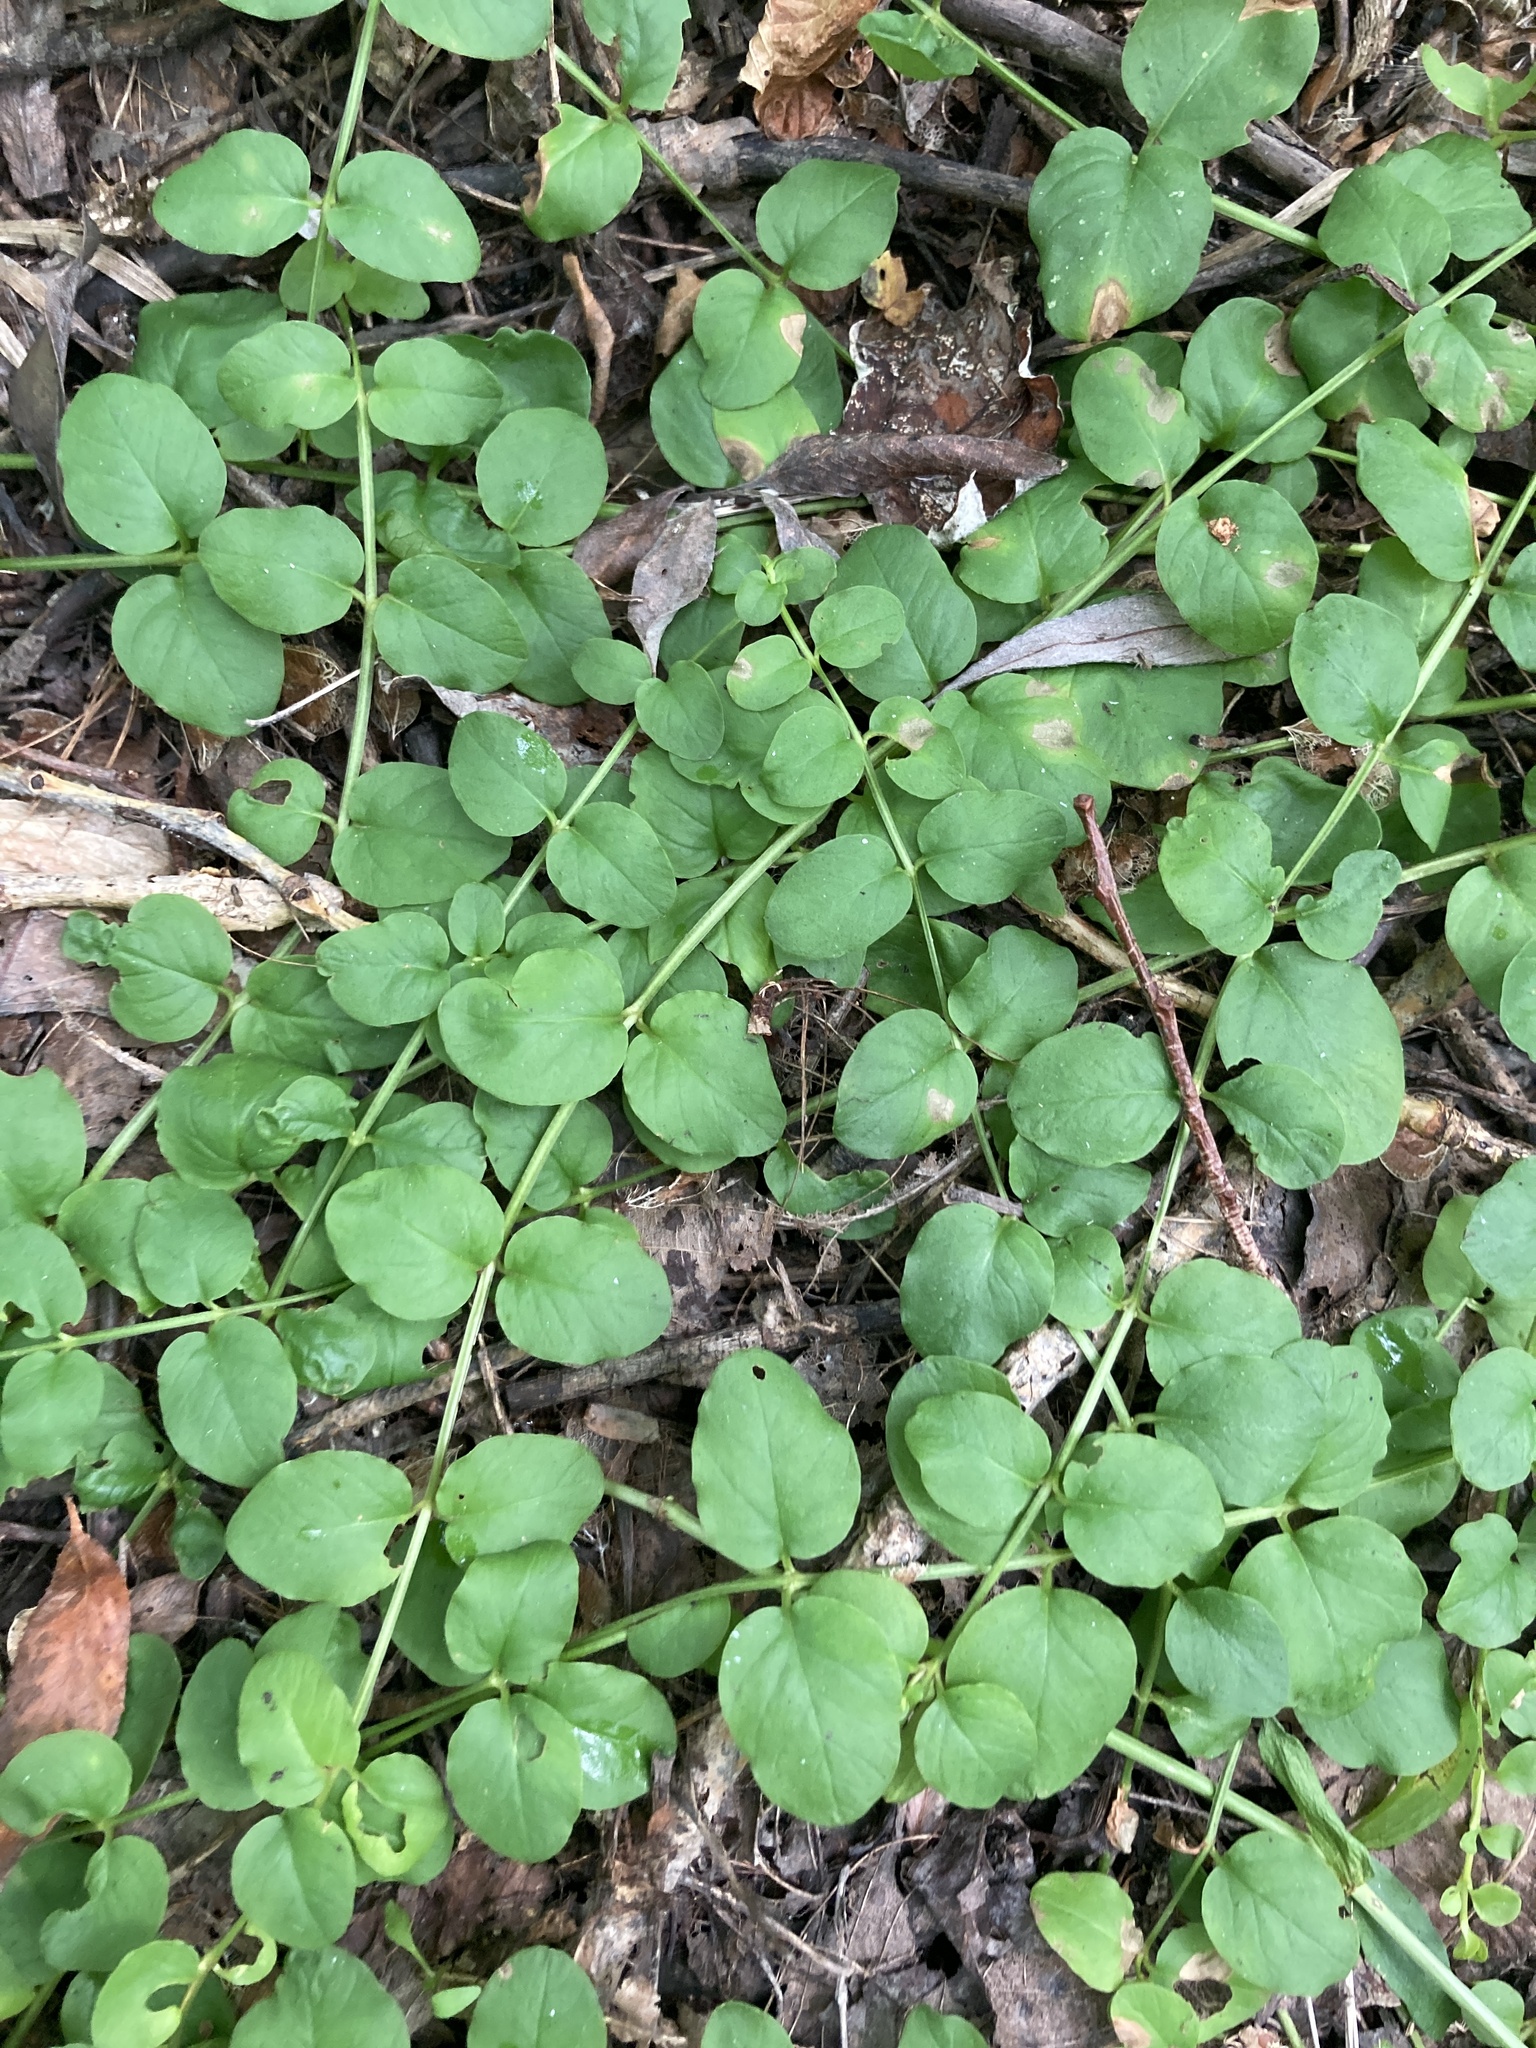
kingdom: Plantae
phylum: Tracheophyta
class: Magnoliopsida
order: Ericales
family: Primulaceae
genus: Lysimachia
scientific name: Lysimachia nummularia
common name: Moneywort
